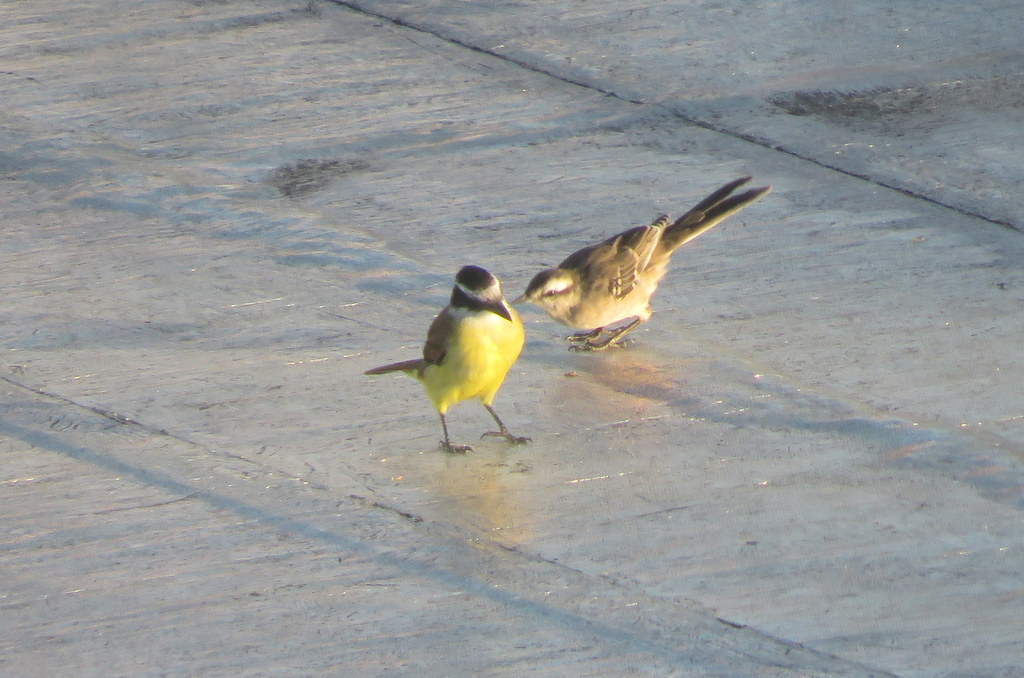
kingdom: Animalia
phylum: Chordata
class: Aves
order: Passeriformes
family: Tyrannidae
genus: Pitangus
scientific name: Pitangus sulphuratus
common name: Great kiskadee
